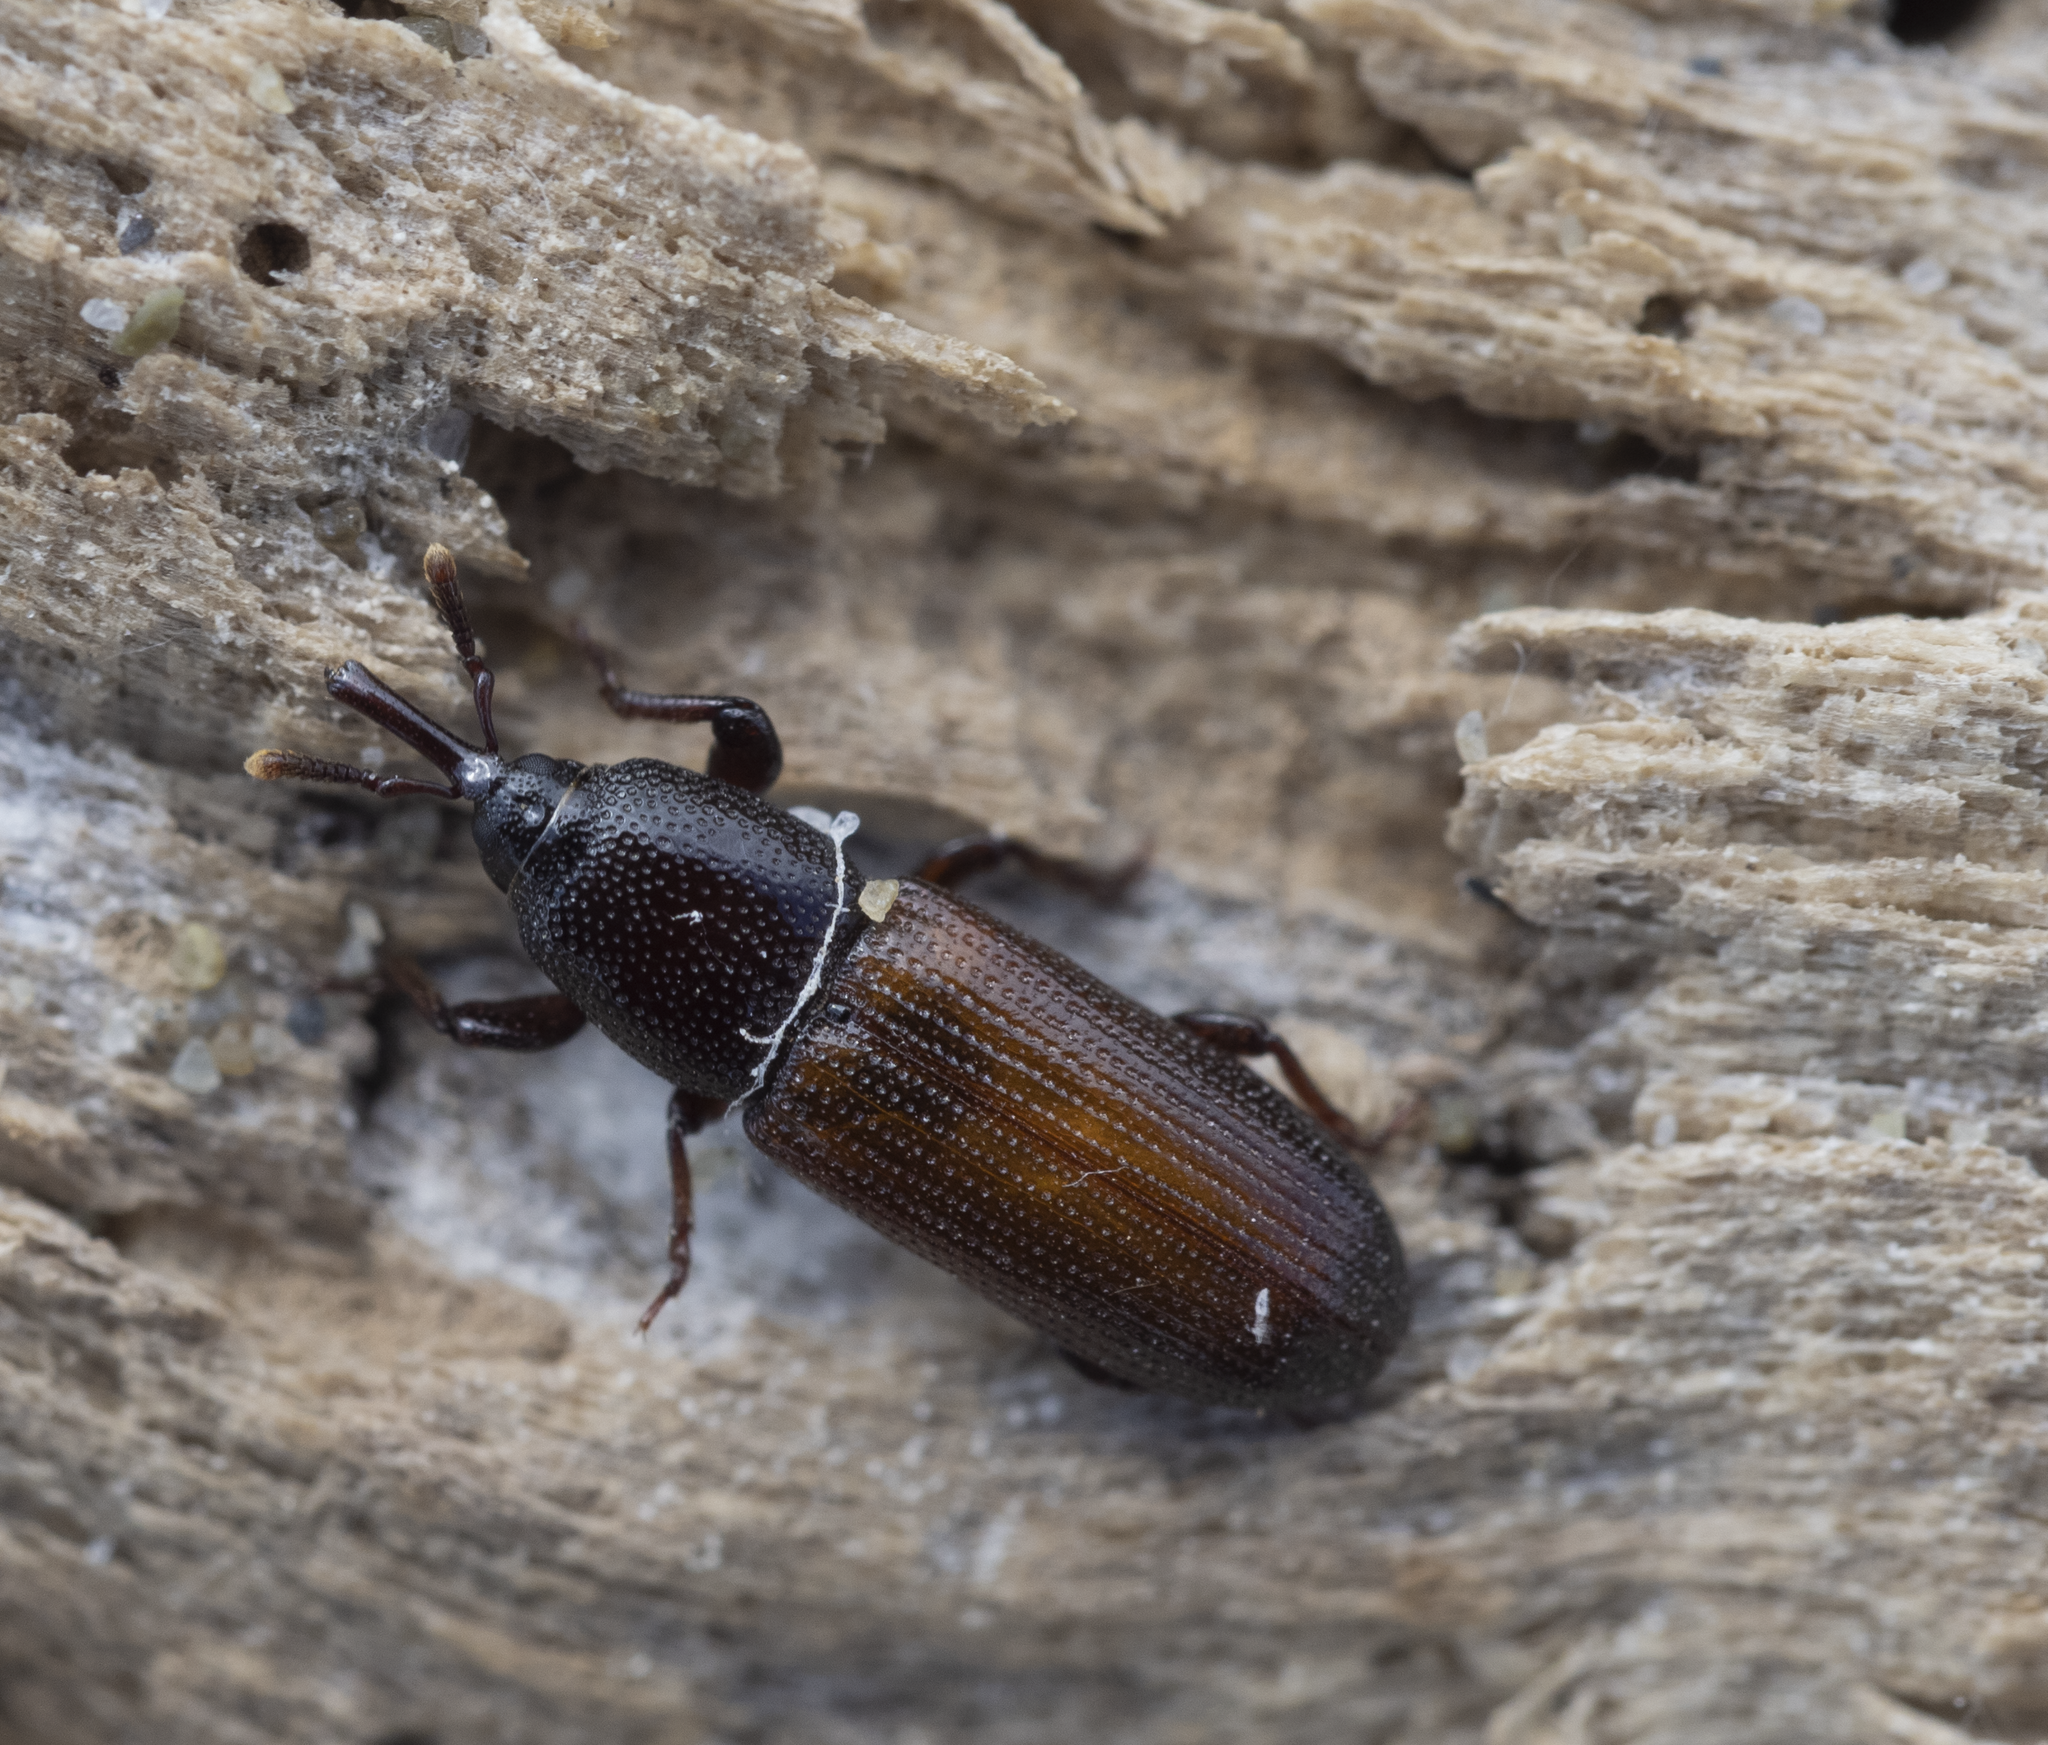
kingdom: Animalia
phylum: Arthropoda
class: Insecta
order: Coleoptera
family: Curculionidae
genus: Mesites
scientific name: Mesites pallidipennis
